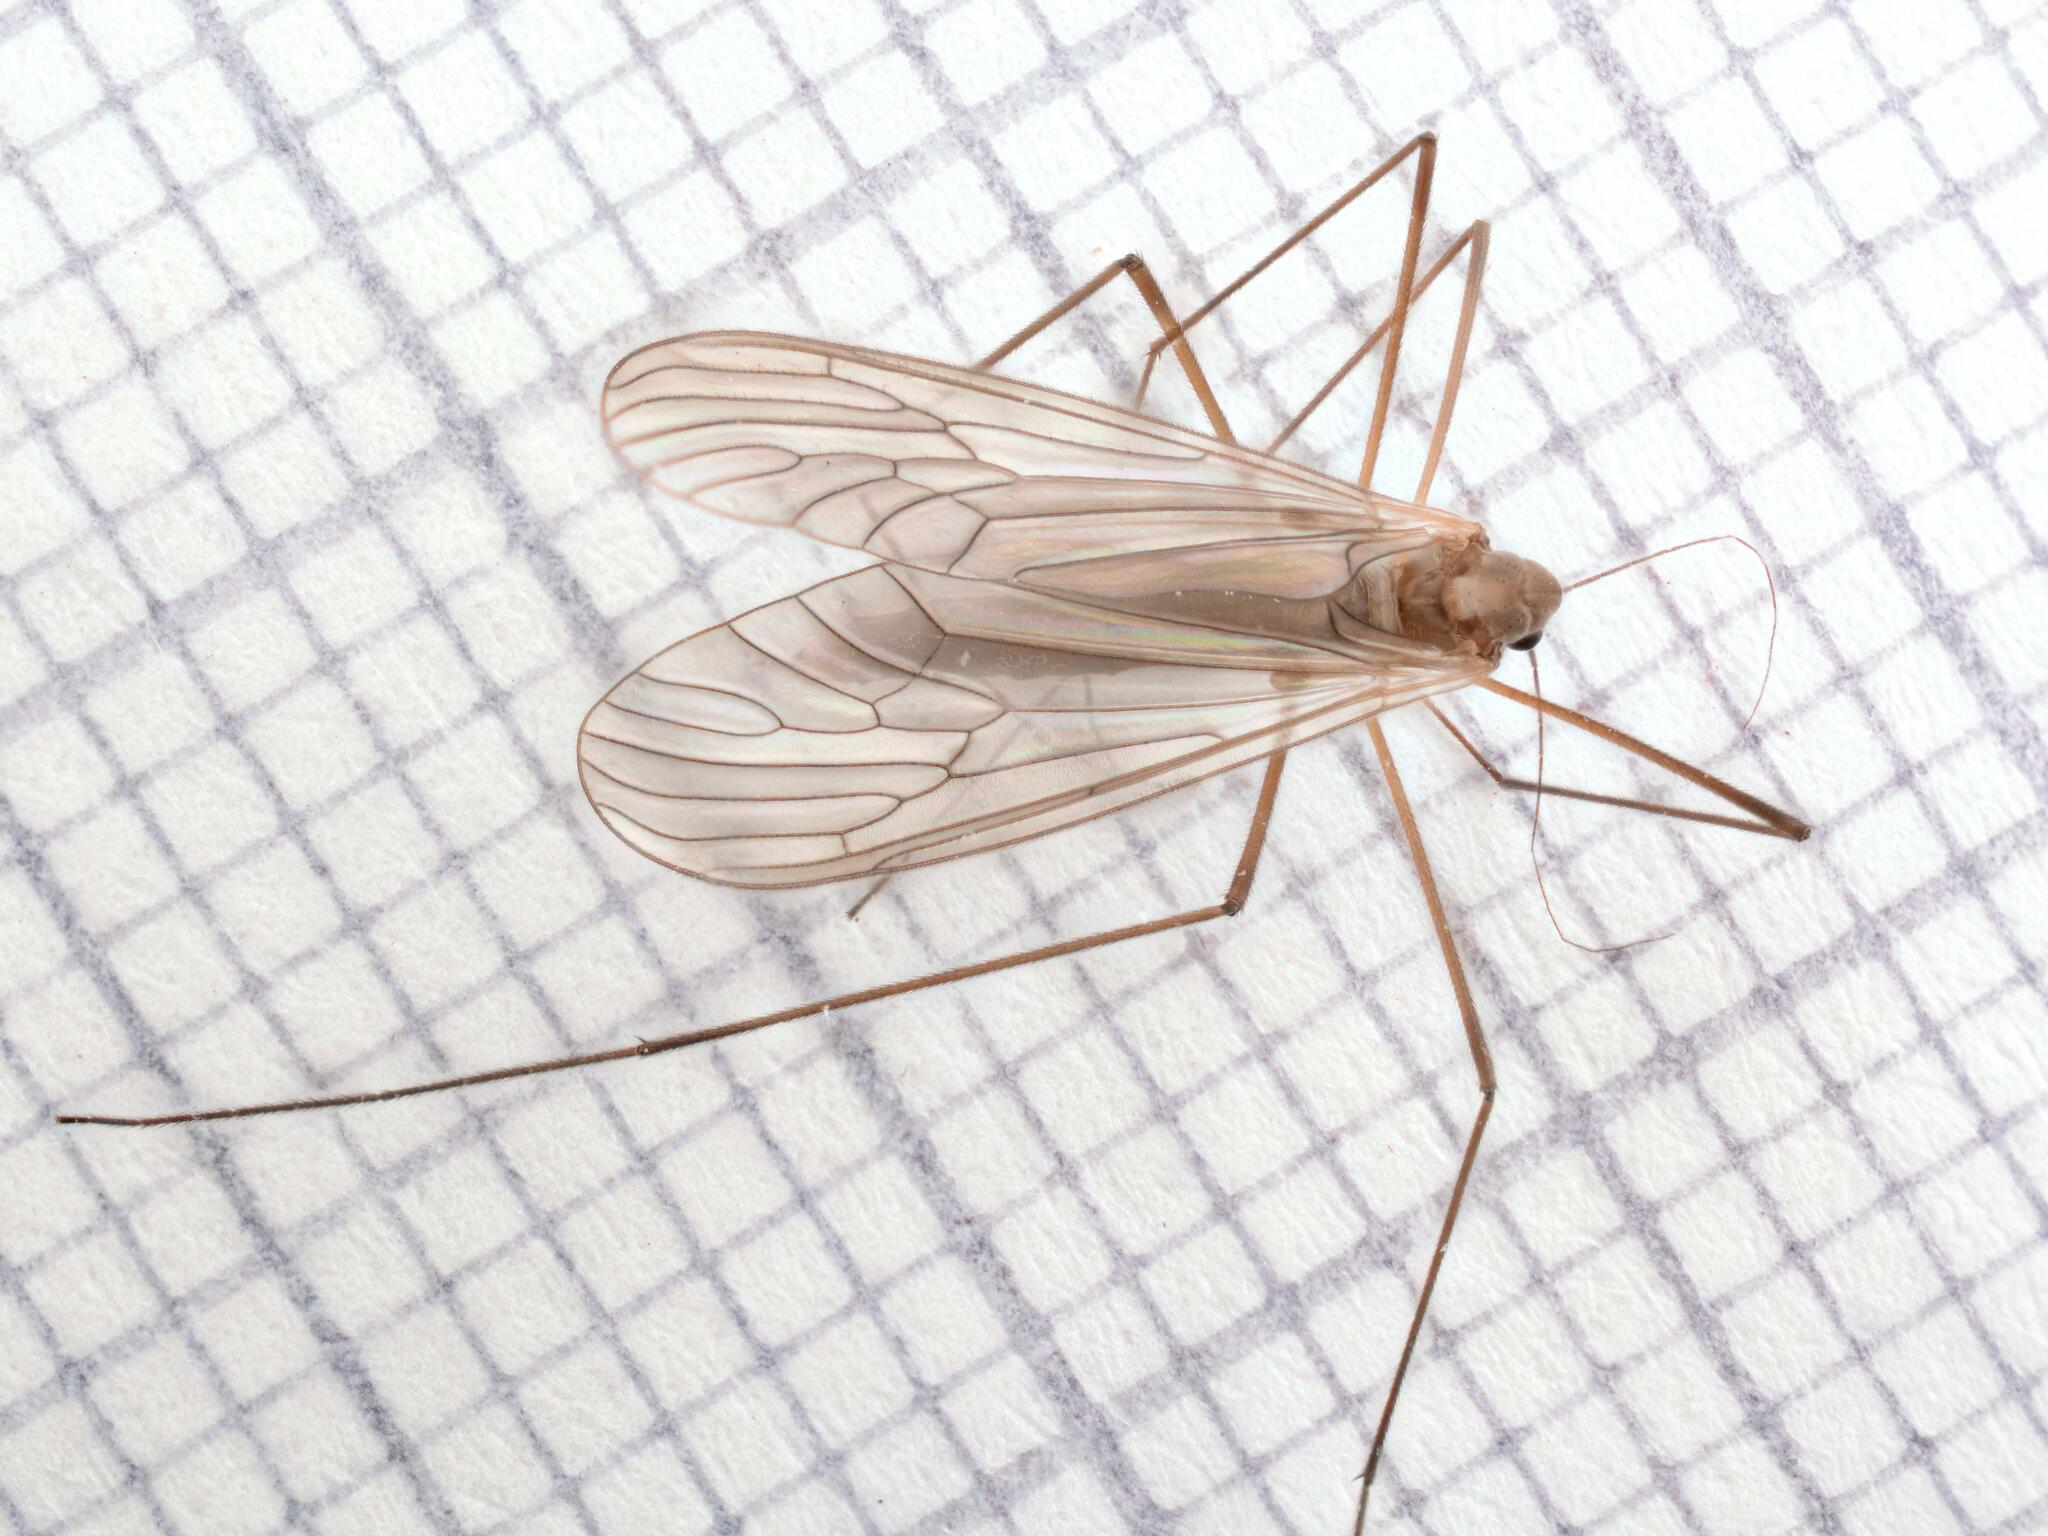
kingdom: Animalia
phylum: Arthropoda
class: Insecta
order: Diptera
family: Trichoceridae
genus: Trichocera
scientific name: Trichocera major
